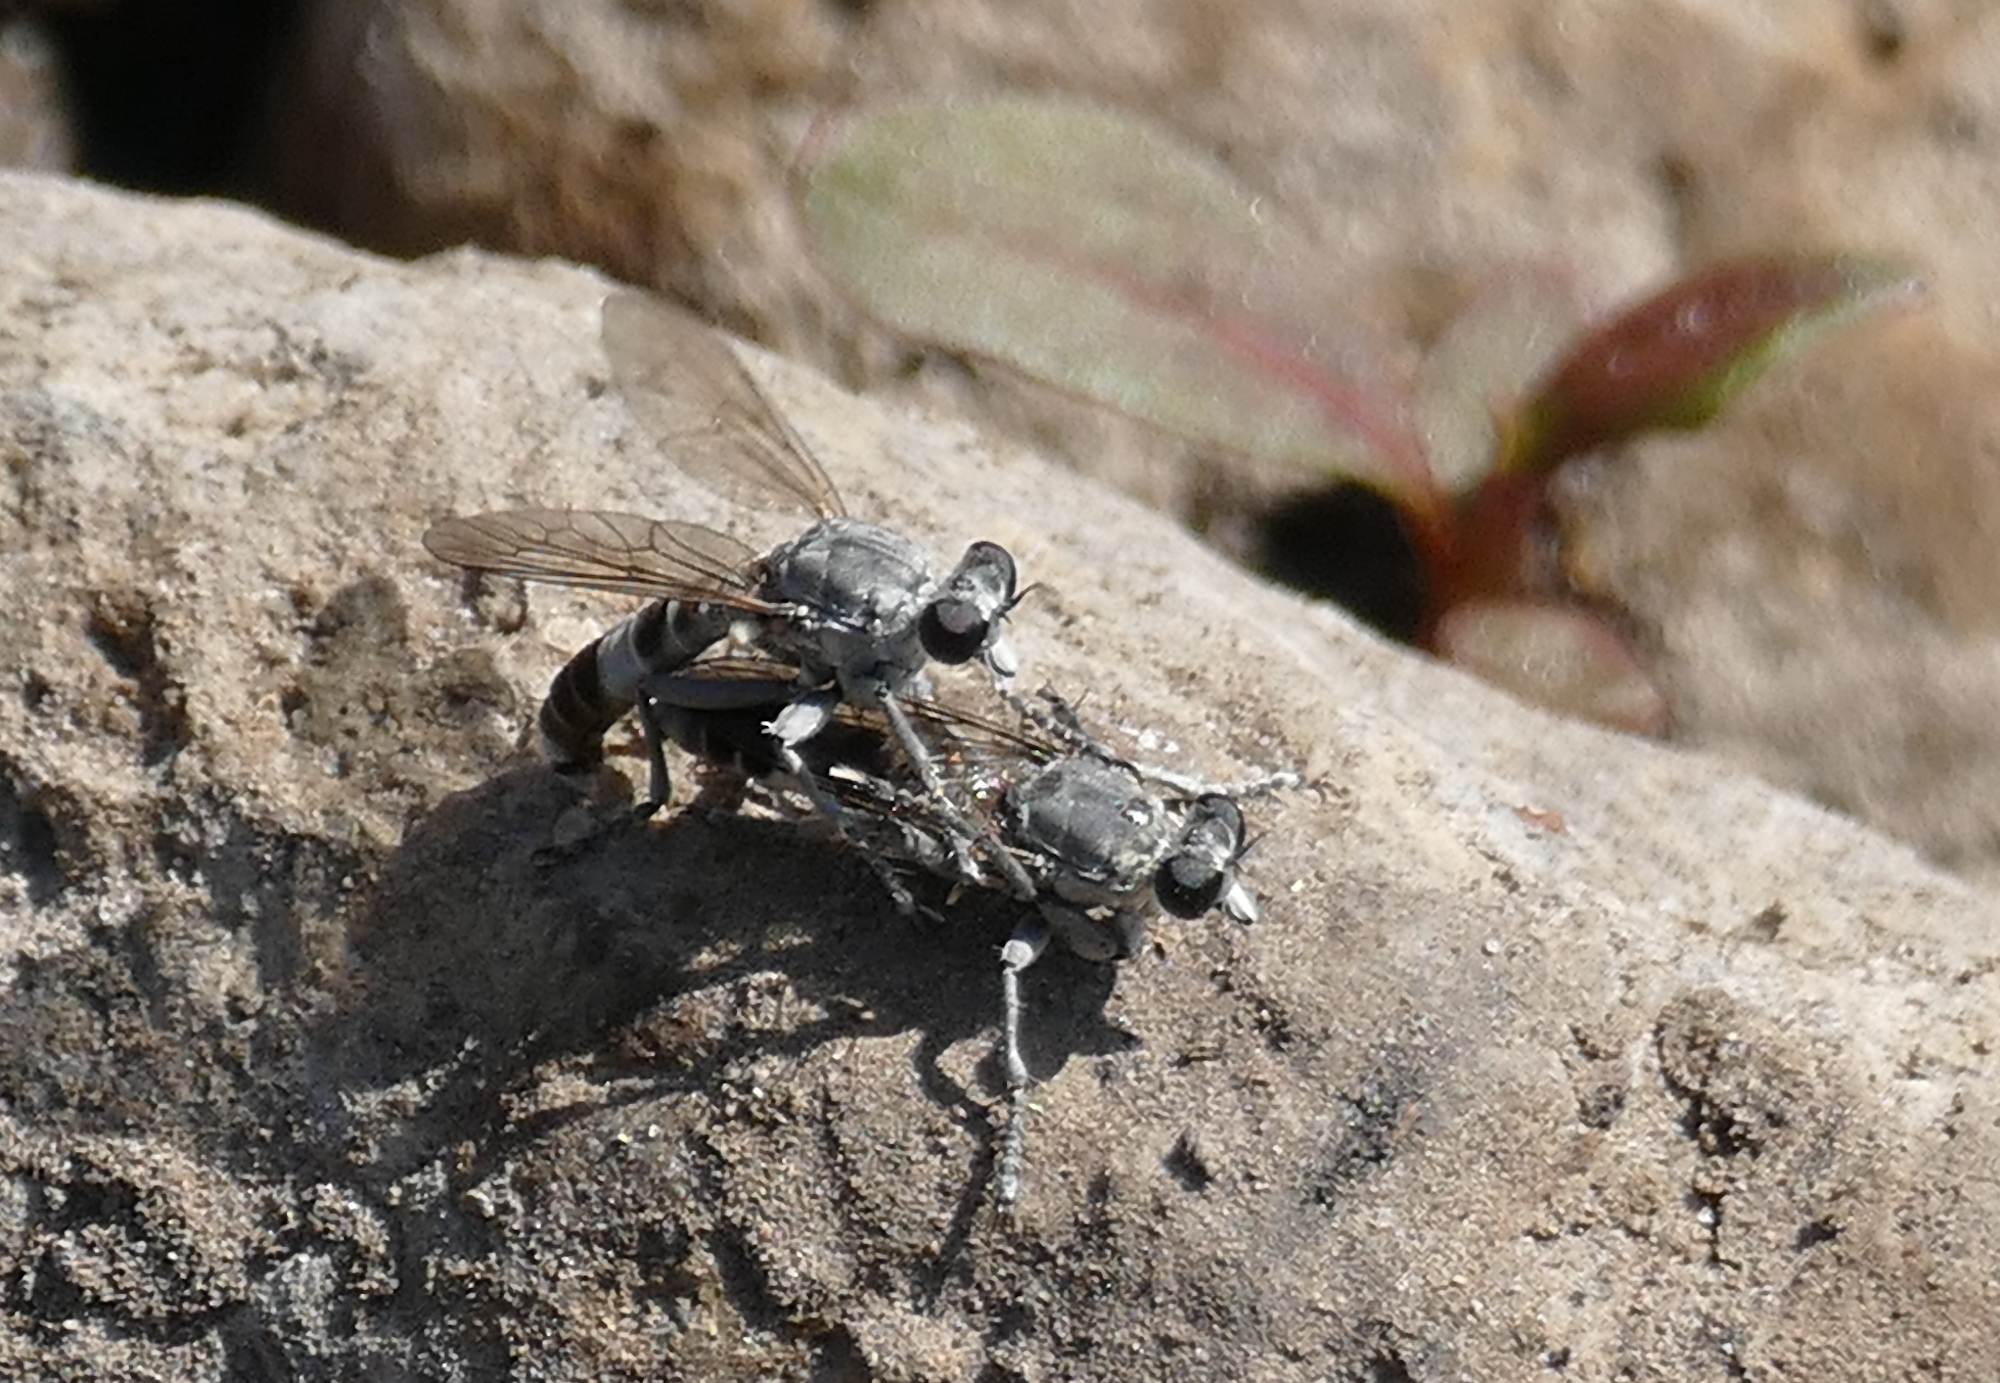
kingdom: Animalia
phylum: Arthropoda
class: Insecta
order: Diptera
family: Asilidae
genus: Stichopogon
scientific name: Stichopogon trifasciatus
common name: Three-banded robber fly
